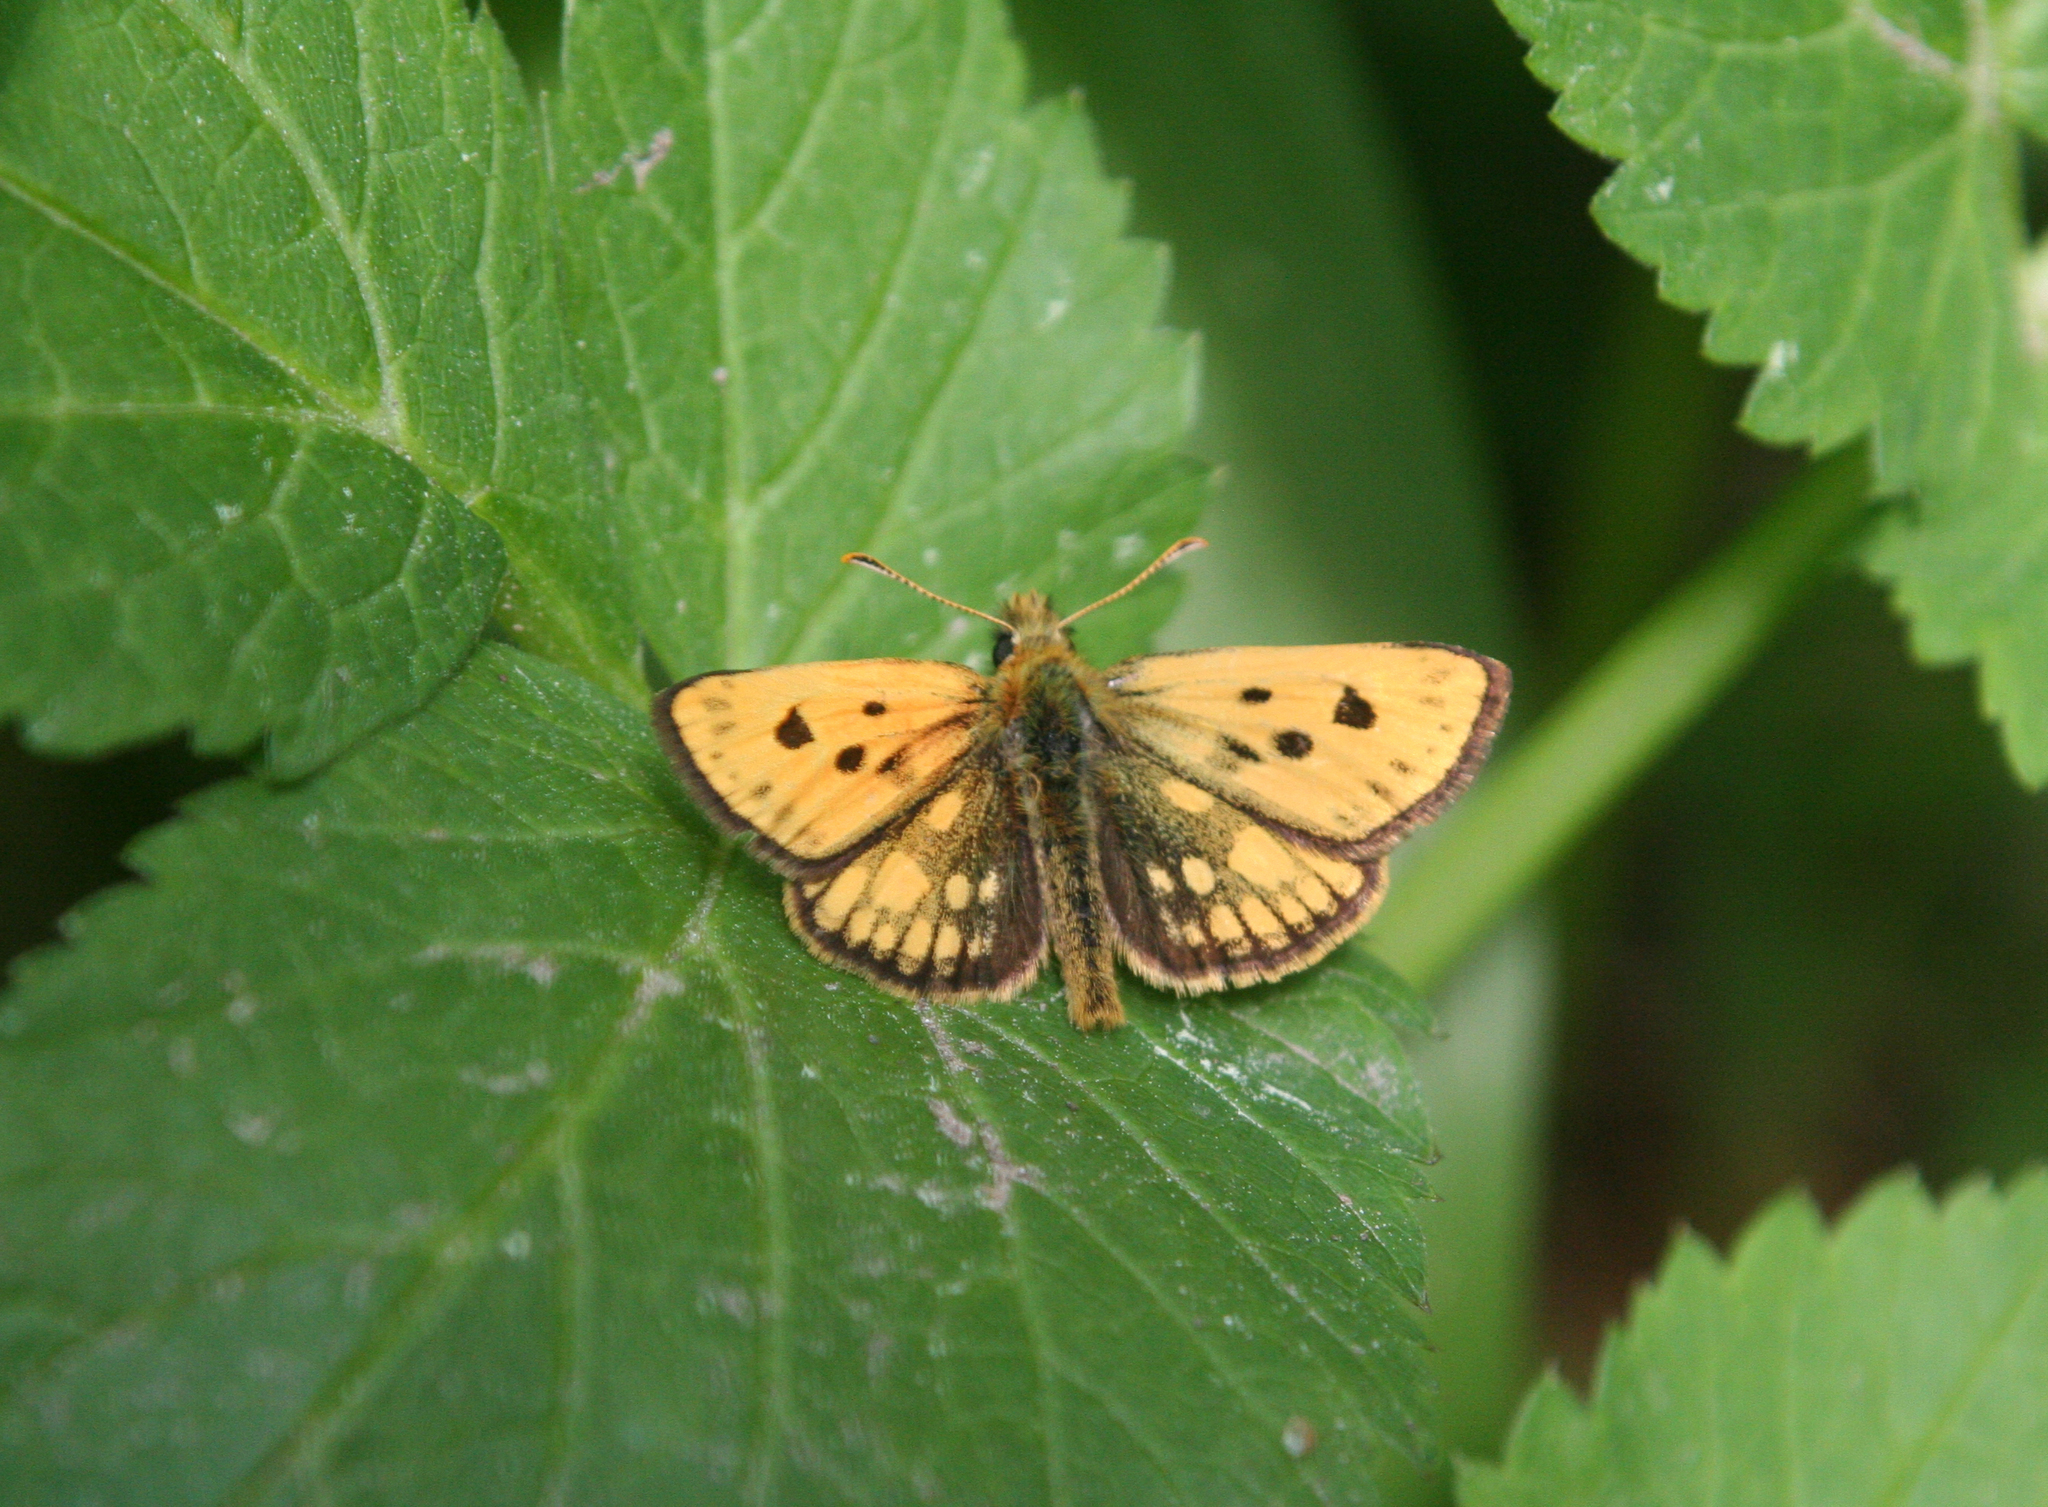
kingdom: Animalia
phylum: Arthropoda
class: Insecta
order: Lepidoptera
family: Hesperiidae
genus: Carterocephalus
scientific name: Carterocephalus silvicola
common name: Northern chequered skipper
